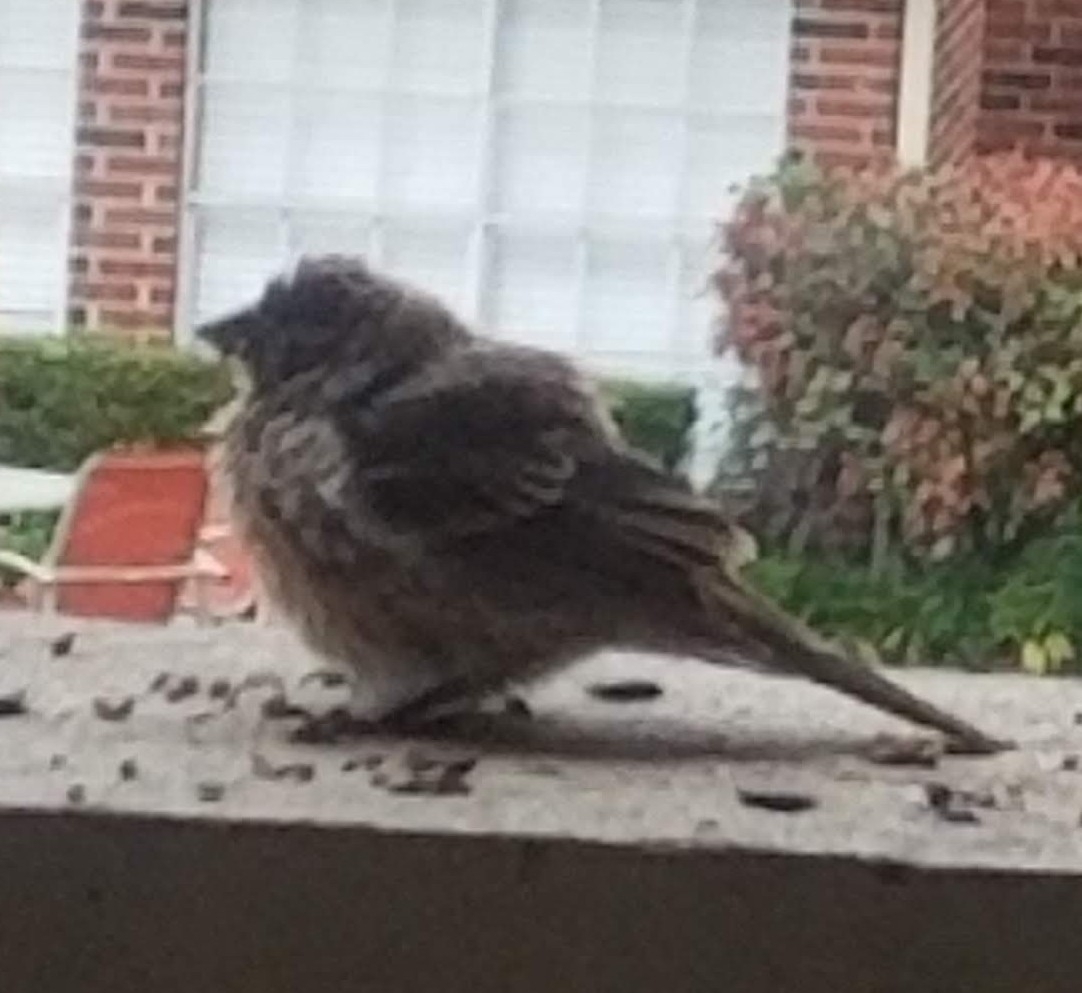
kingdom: Animalia
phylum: Chordata
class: Aves
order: Passeriformes
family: Fringillidae
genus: Haemorhous
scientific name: Haemorhous mexicanus
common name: House finch
